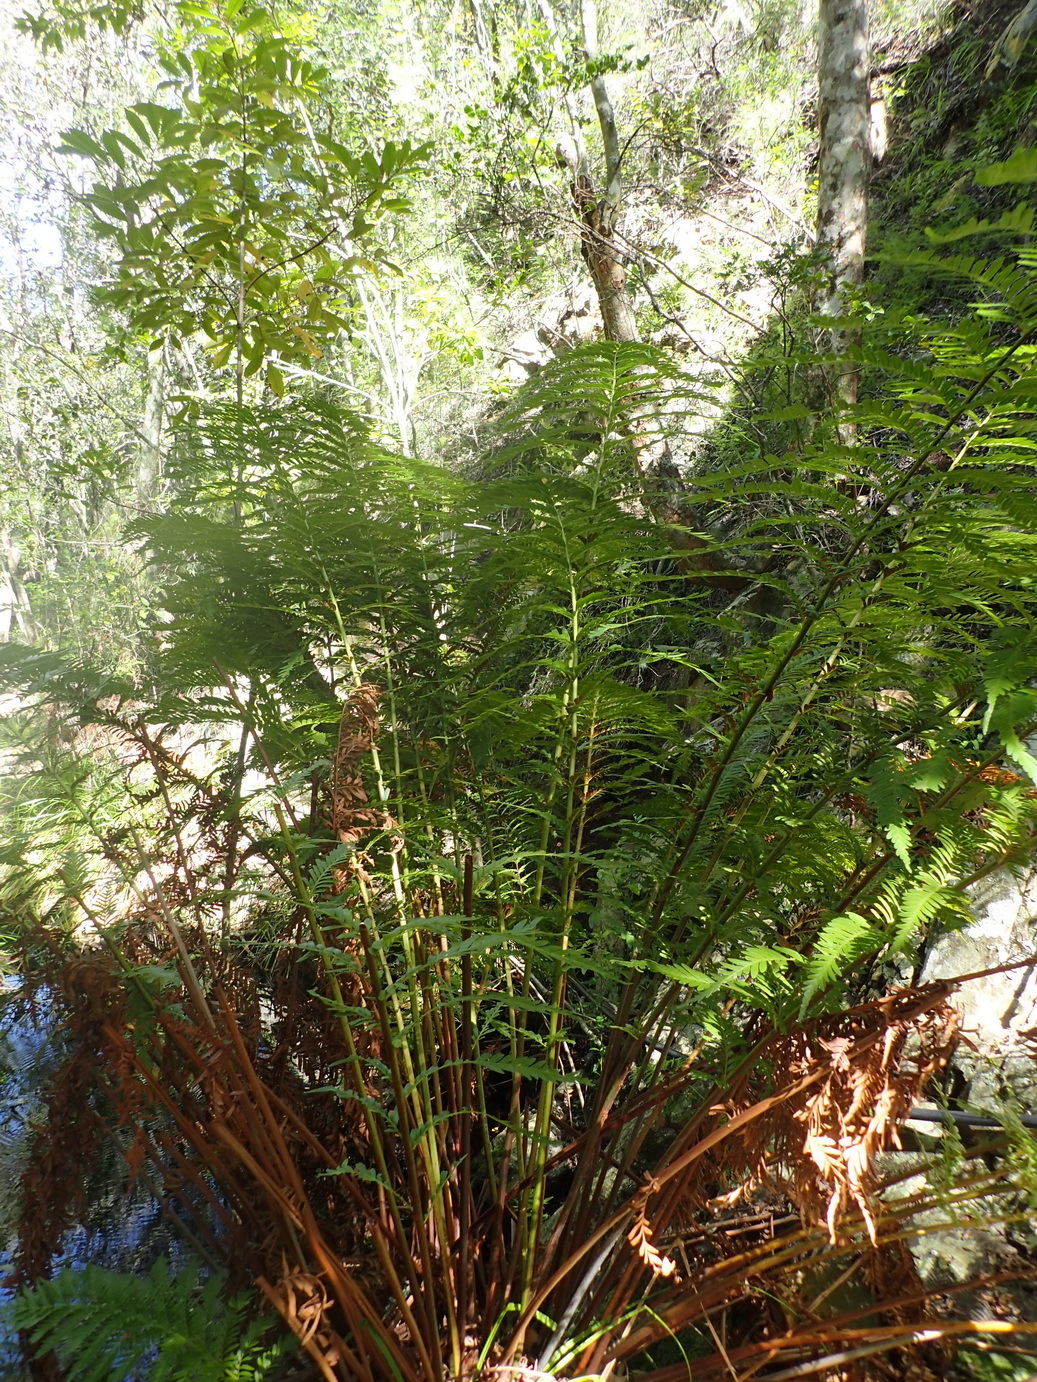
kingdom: Plantae
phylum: Tracheophyta
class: Polypodiopsida
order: Osmundales
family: Osmundaceae
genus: Todea
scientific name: Todea barbara
